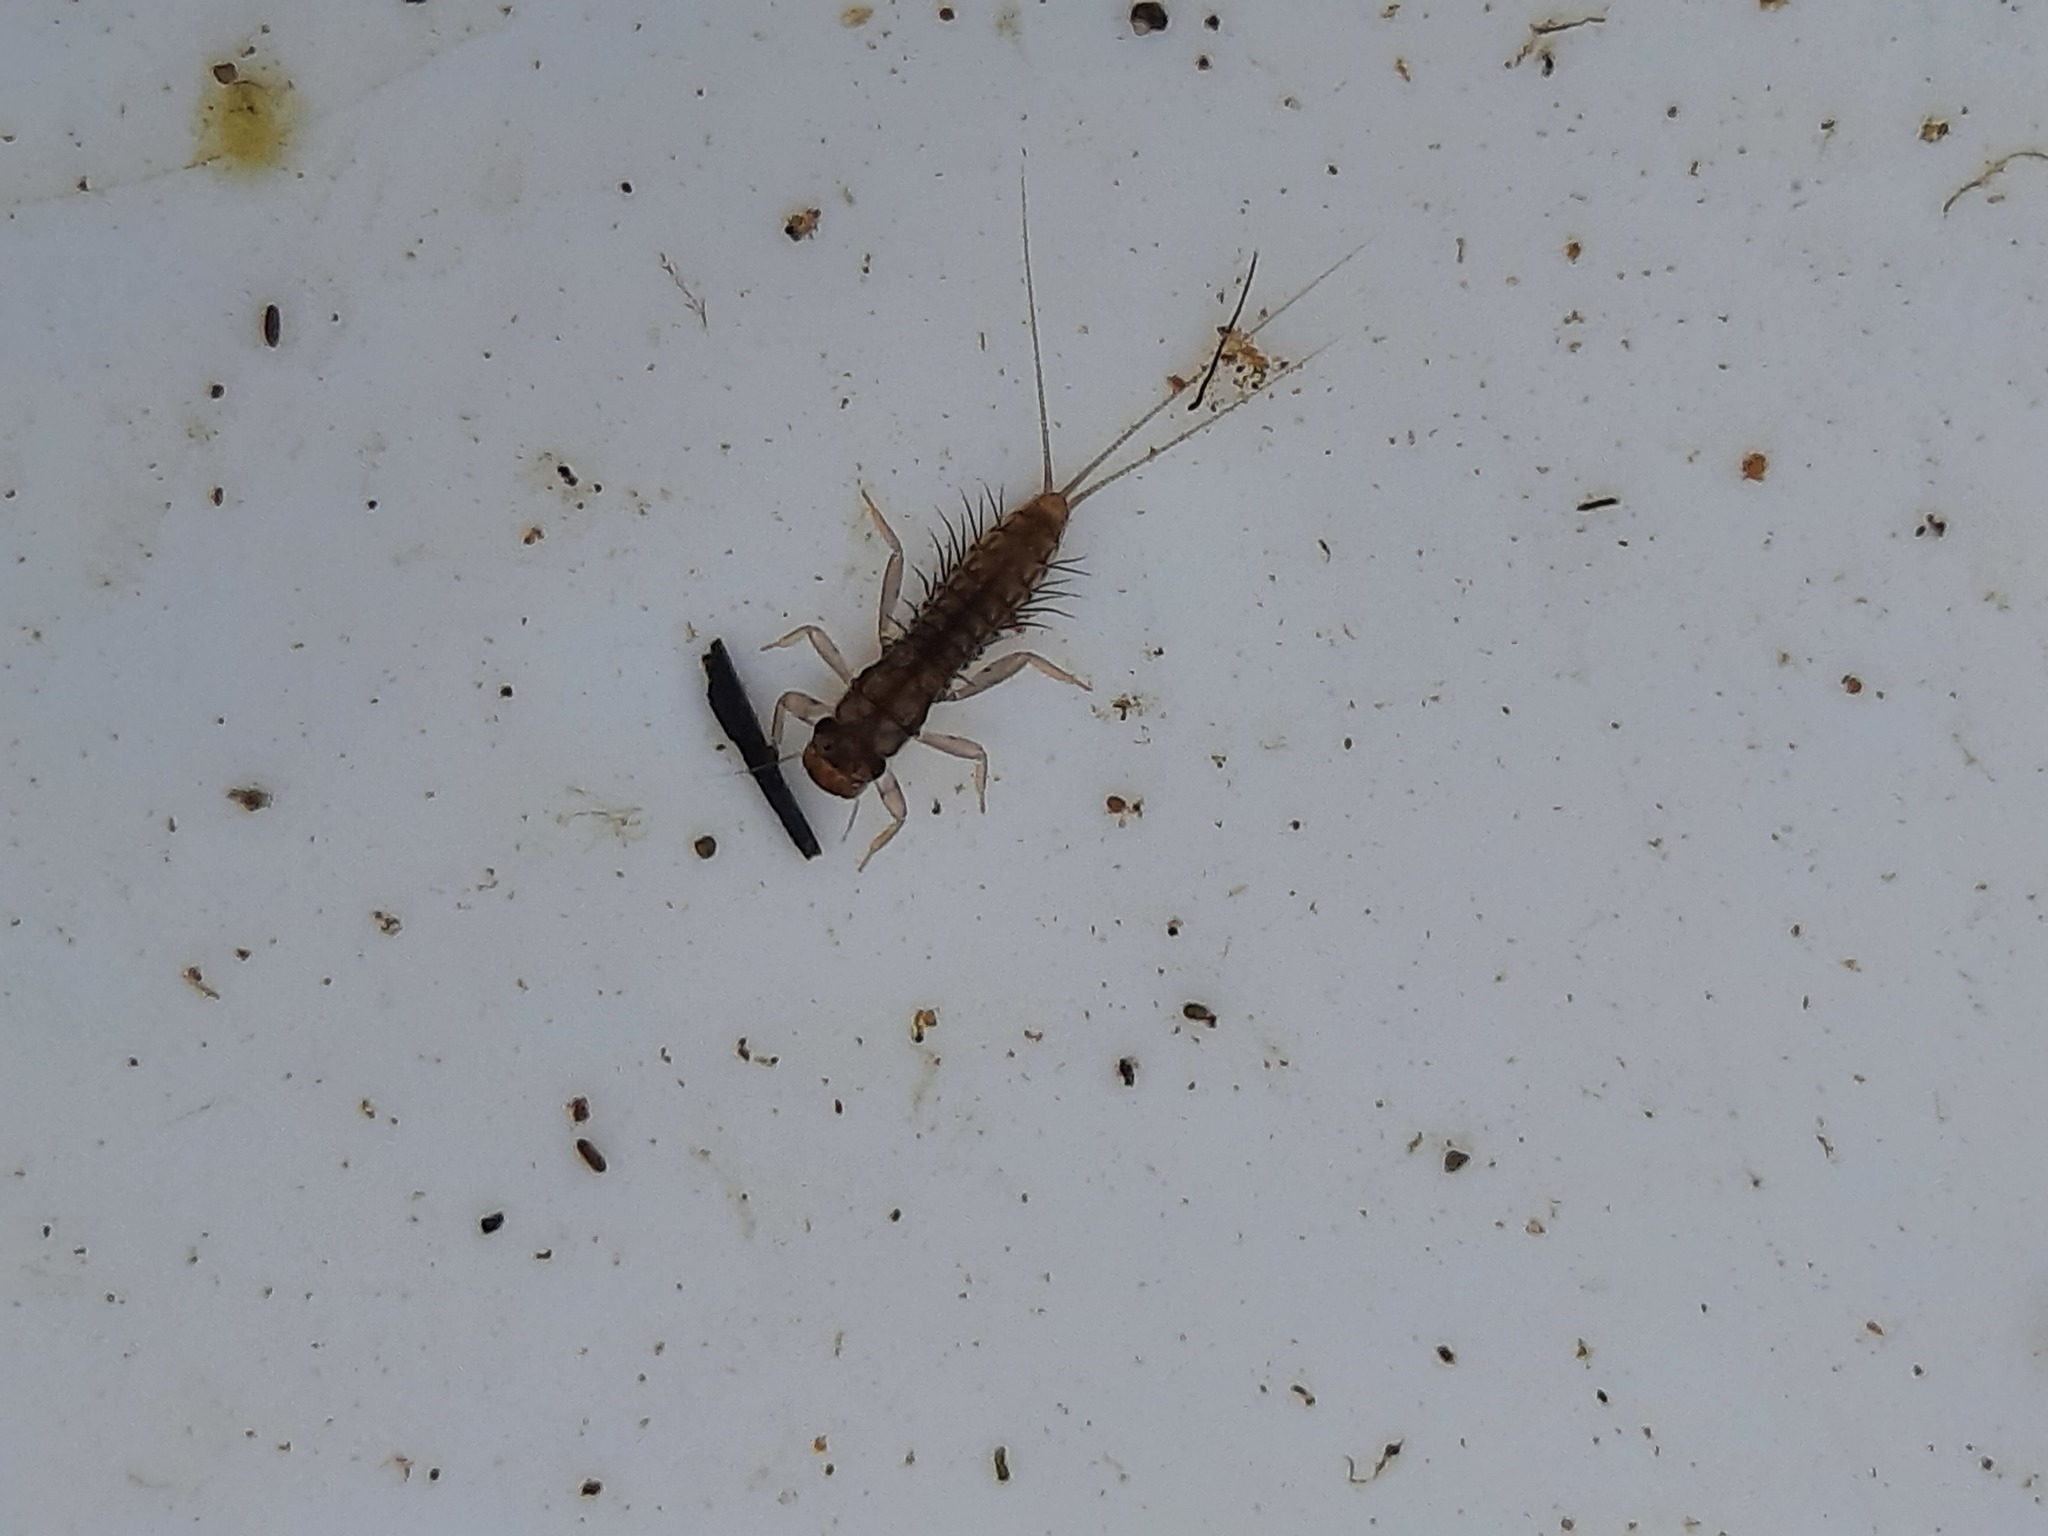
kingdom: Animalia
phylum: Arthropoda
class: Insecta
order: Ephemeroptera
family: Leptophlebiidae
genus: Neozephlebia
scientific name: Neozephlebia scita
